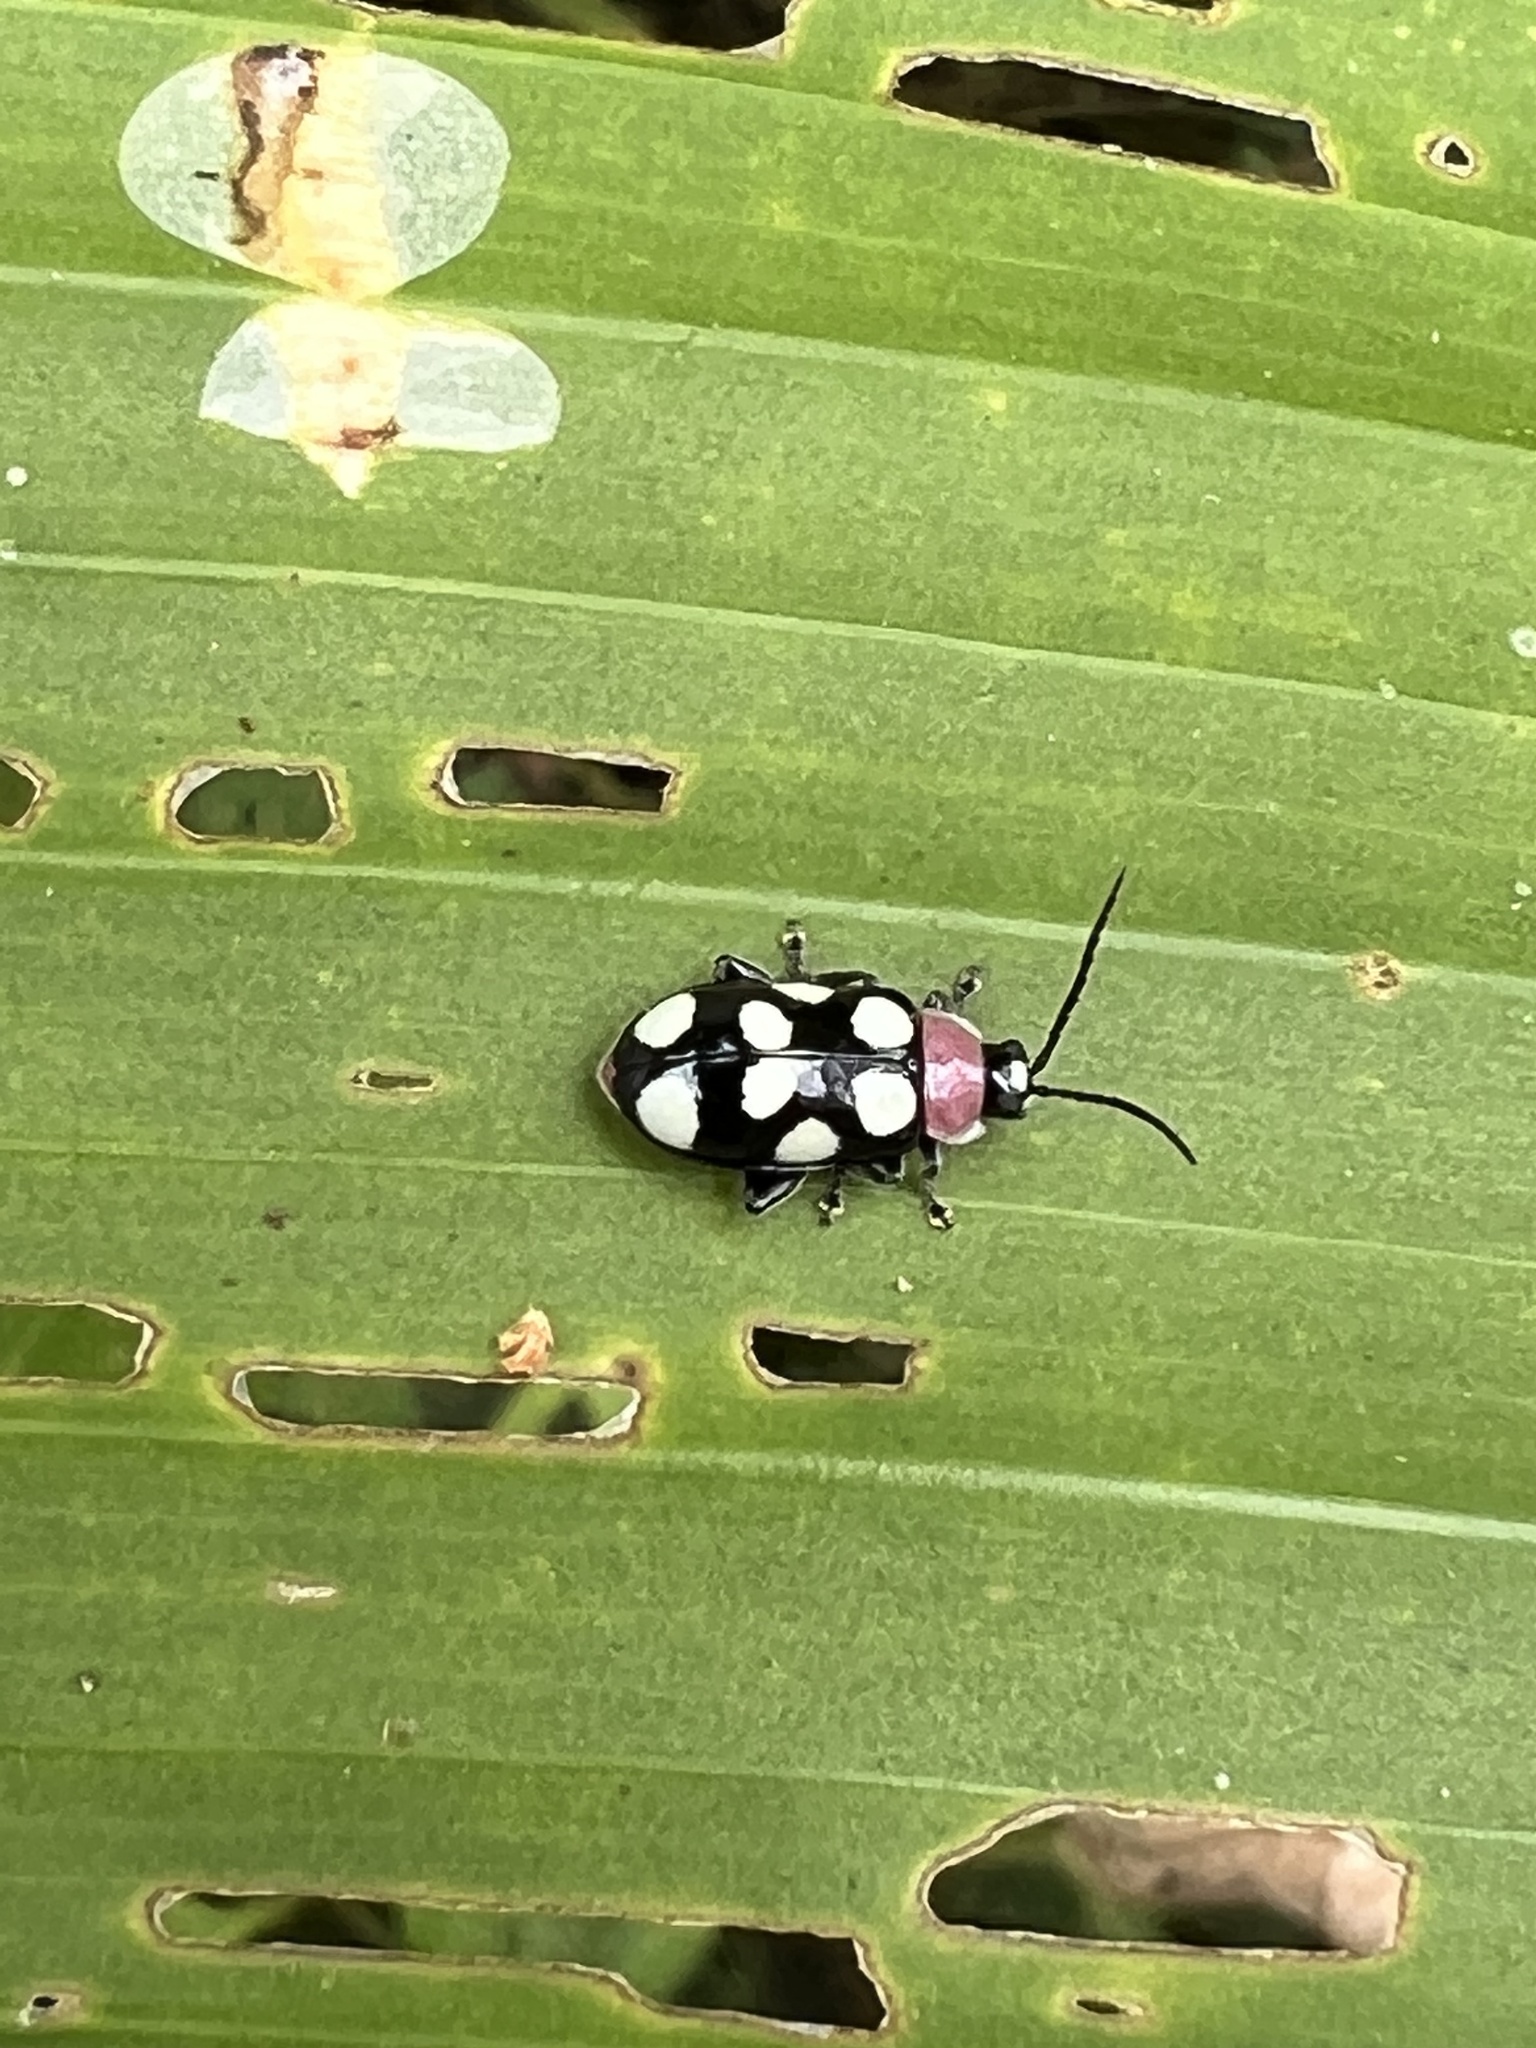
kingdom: Animalia
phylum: Arthropoda
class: Insecta
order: Coleoptera
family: Chrysomelidae
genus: Omophoita
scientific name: Omophoita aequinoctialis
